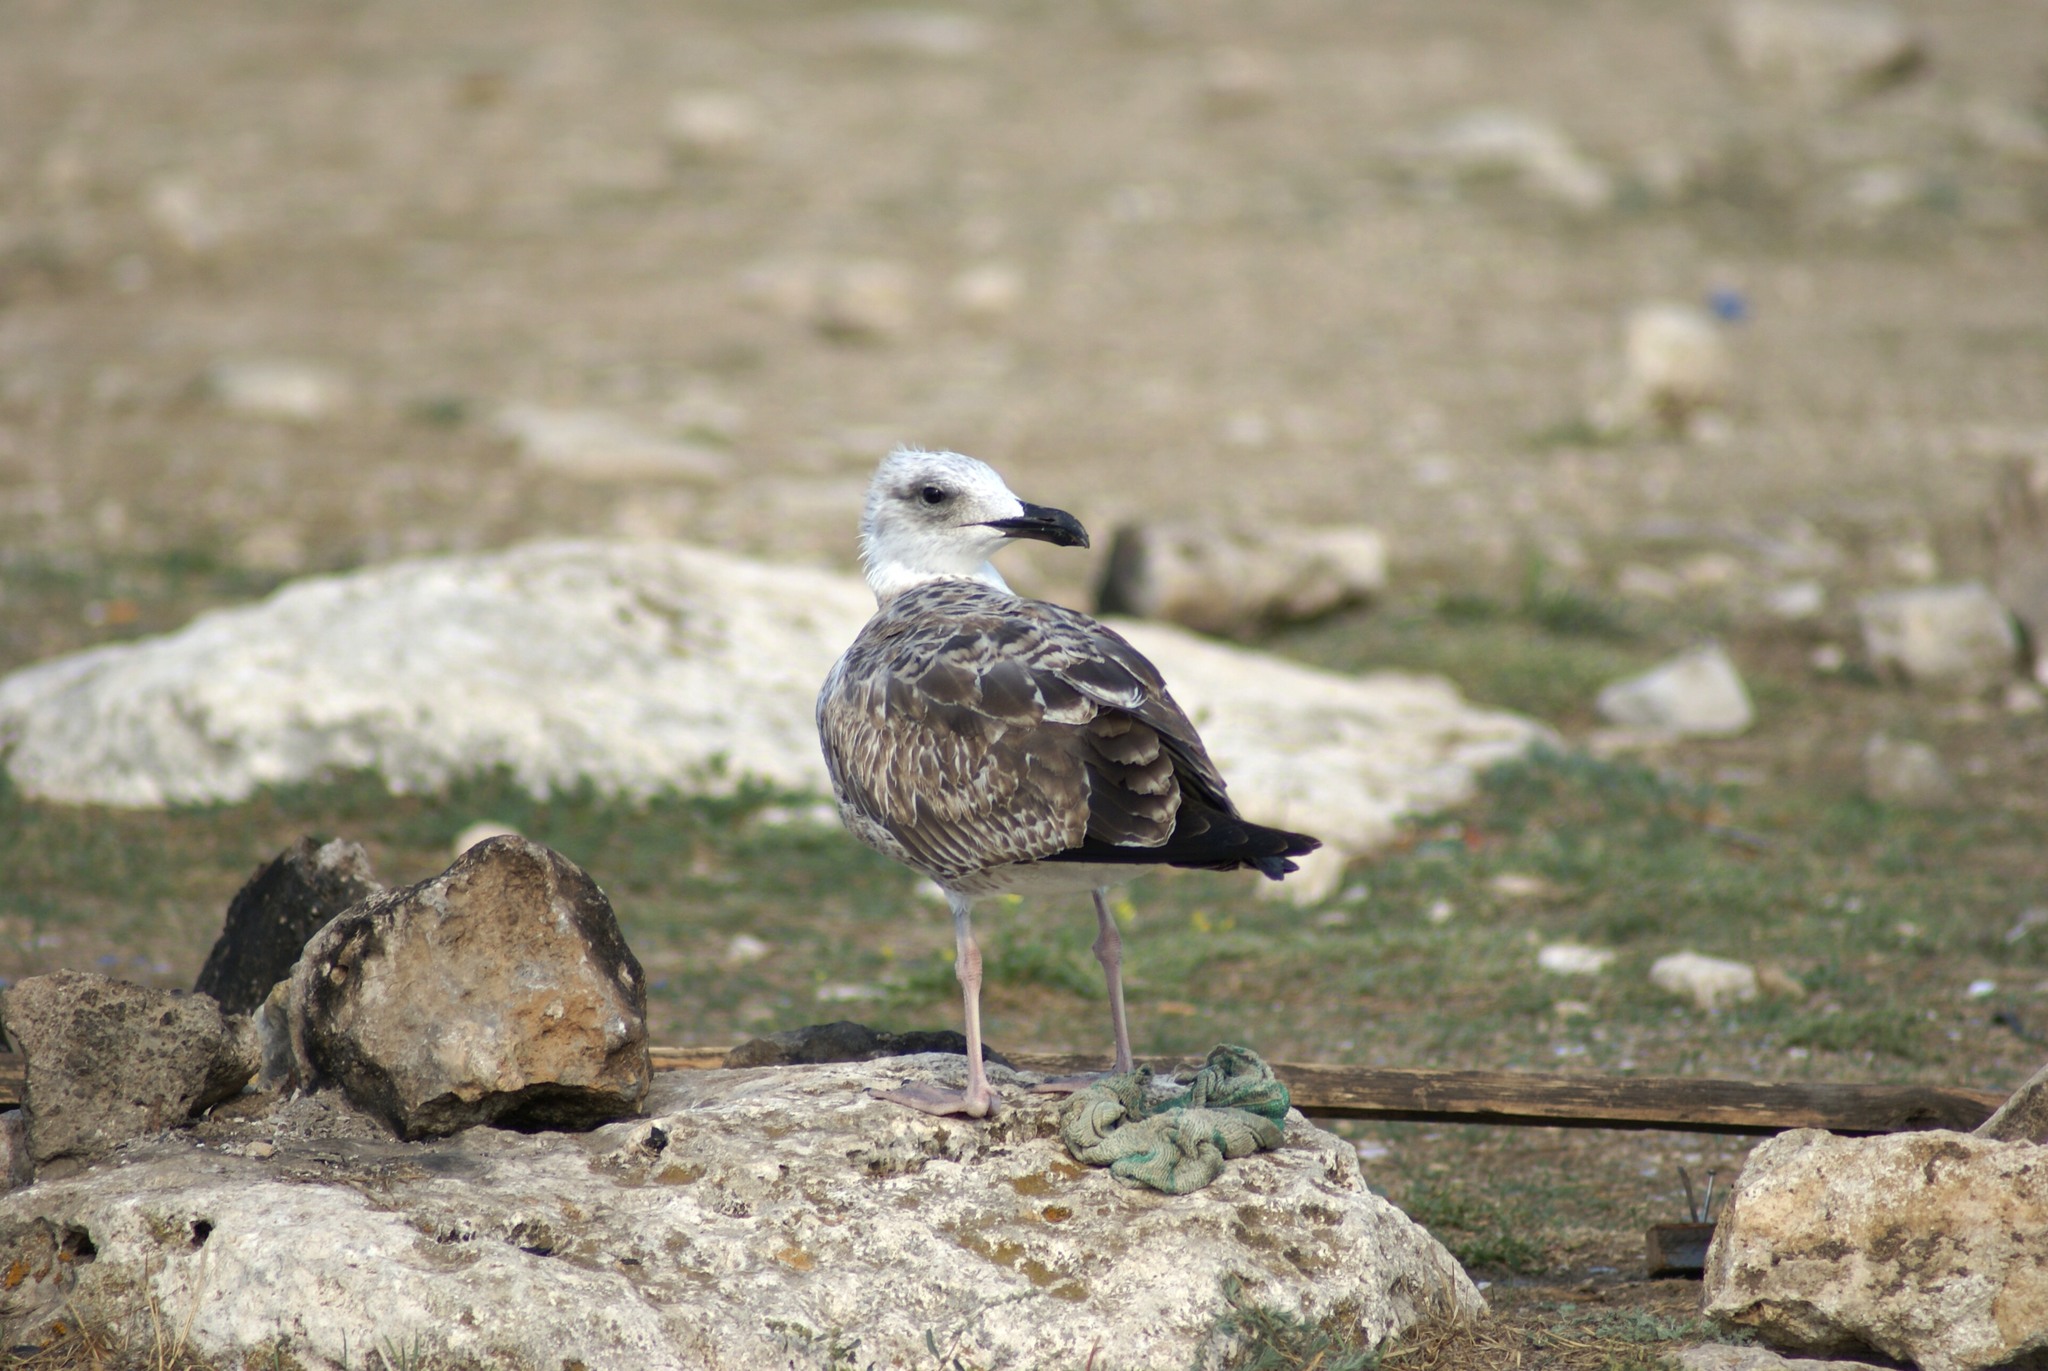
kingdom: Animalia
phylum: Chordata
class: Aves
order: Charadriiformes
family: Laridae
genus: Larus
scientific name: Larus michahellis
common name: Yellow-legged gull
